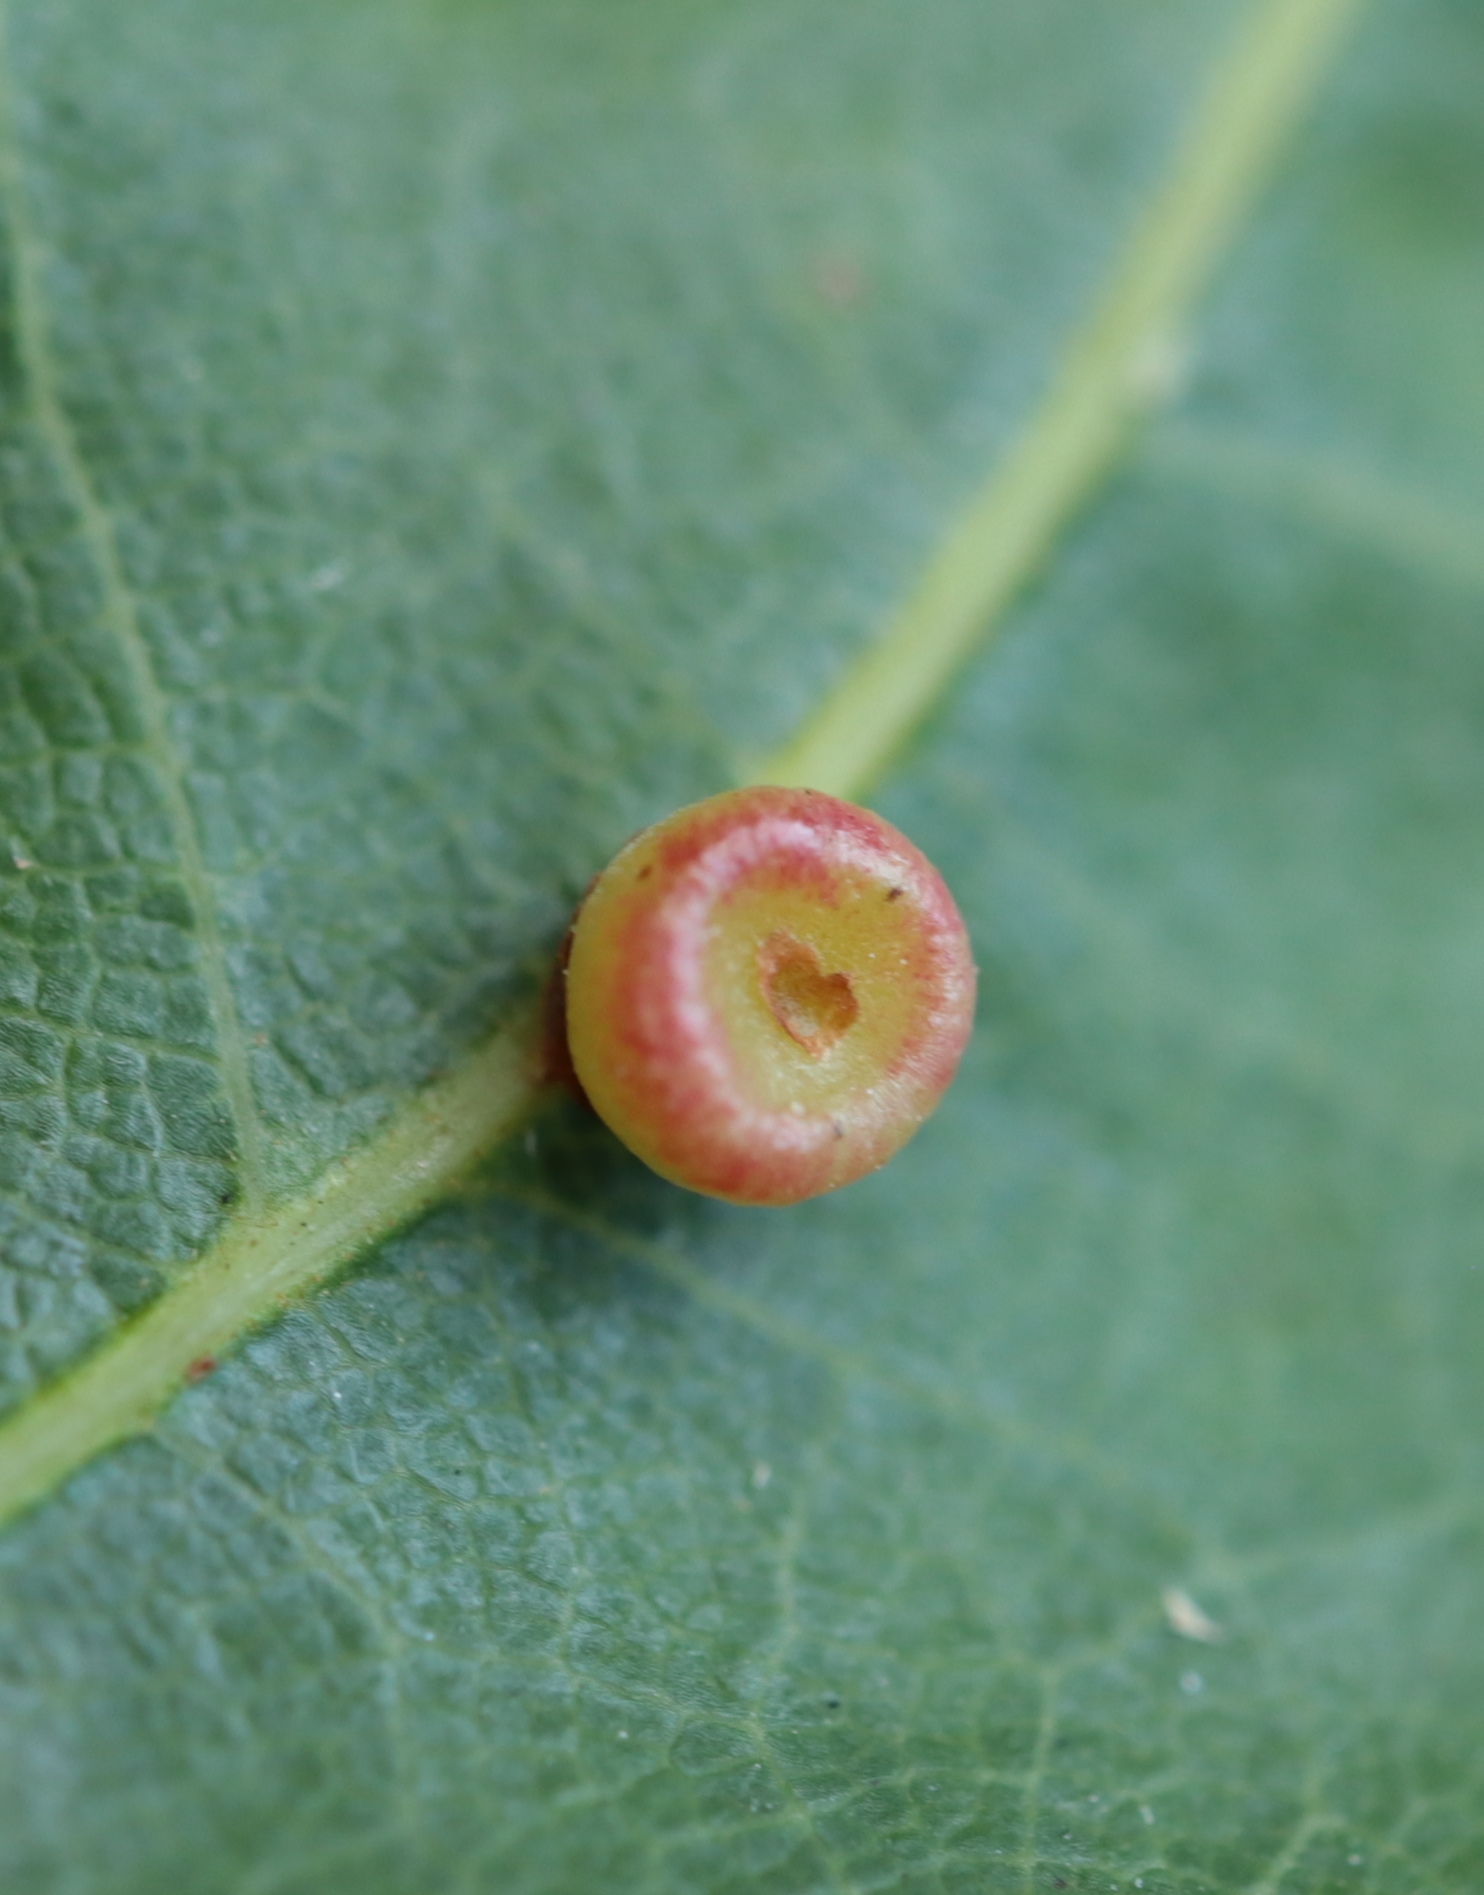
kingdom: Animalia
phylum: Arthropoda
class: Insecta
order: Hymenoptera
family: Cynipidae
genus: Kokkocynips
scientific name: Kokkocynips rileyi
